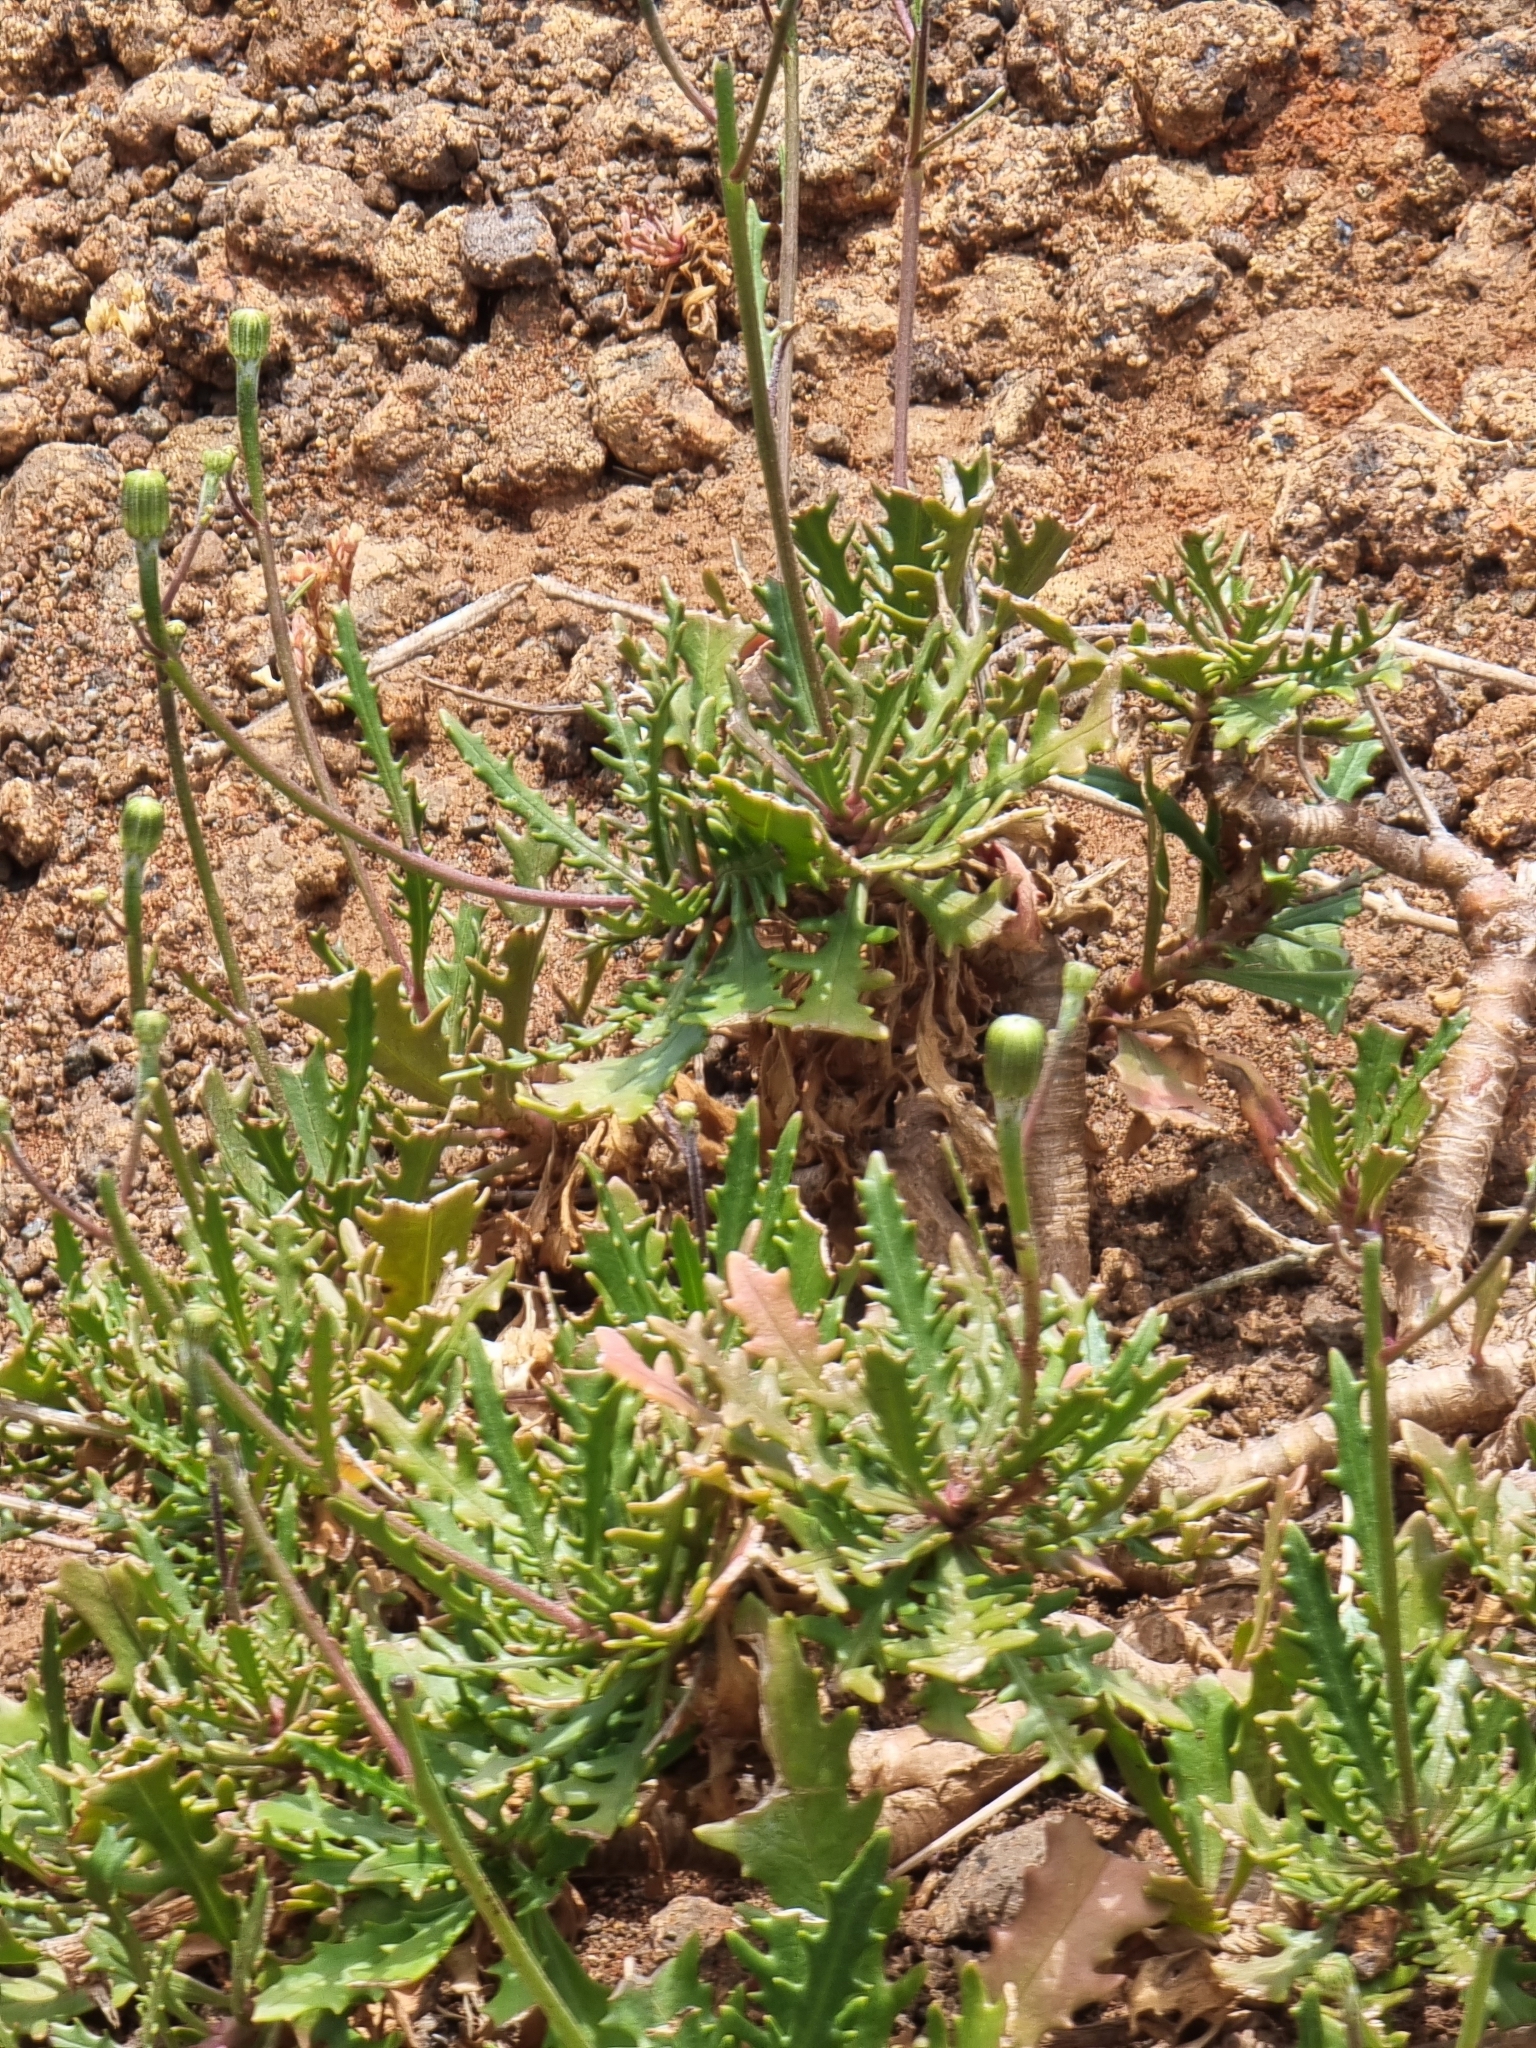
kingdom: Plantae
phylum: Tracheophyta
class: Magnoliopsida
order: Asterales
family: Asteraceae
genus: Tolpis
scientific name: Tolpis succulenta
